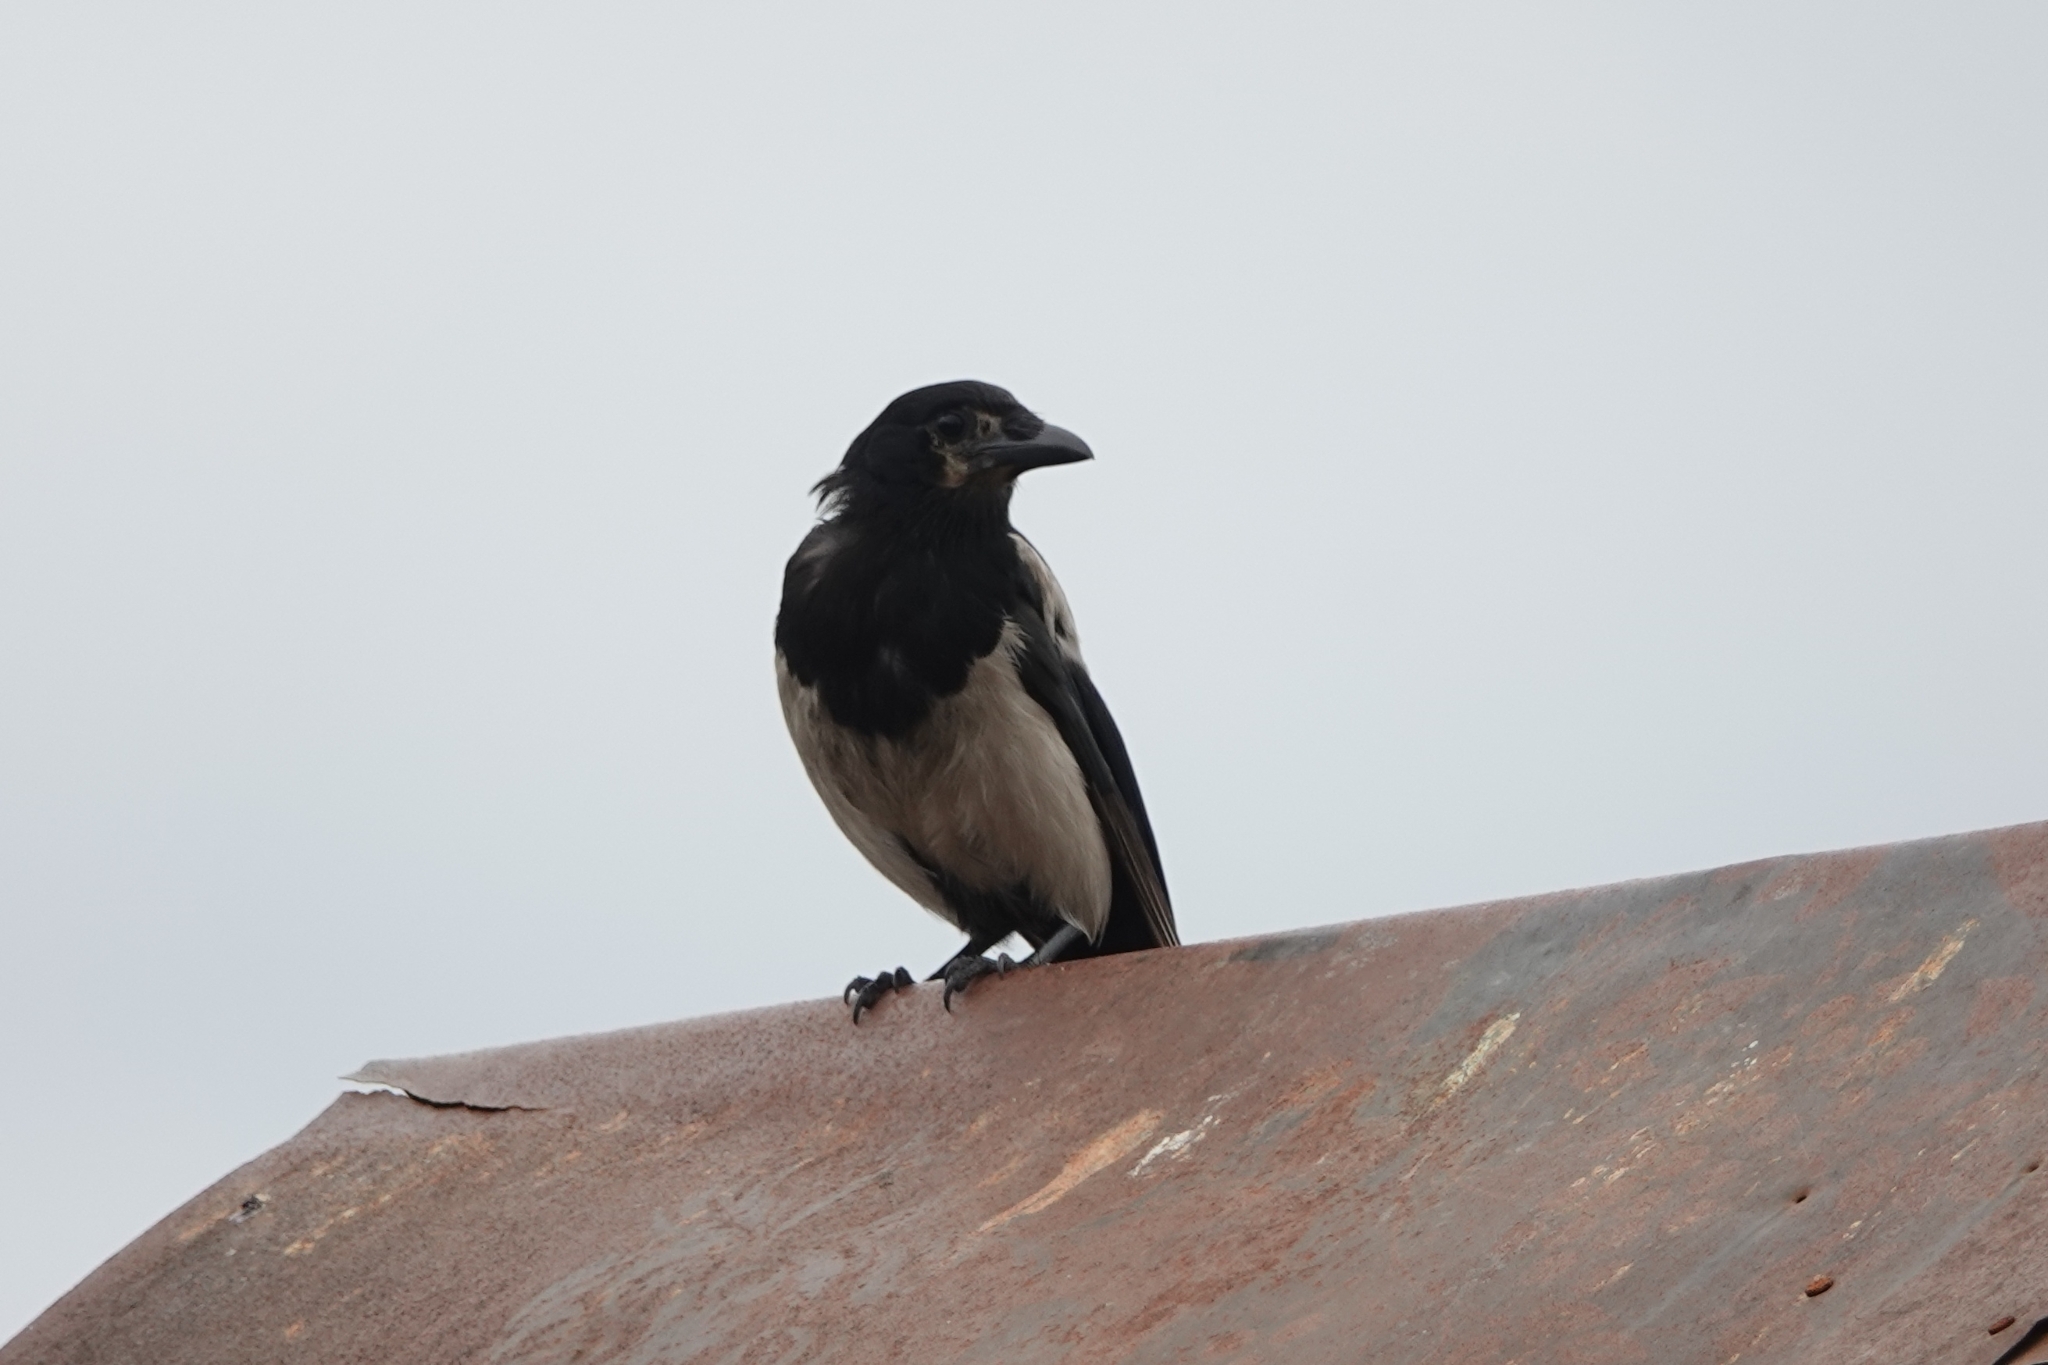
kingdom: Animalia
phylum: Chordata
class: Aves
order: Passeriformes
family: Corvidae
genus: Pica
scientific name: Pica pica
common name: Eurasian magpie
